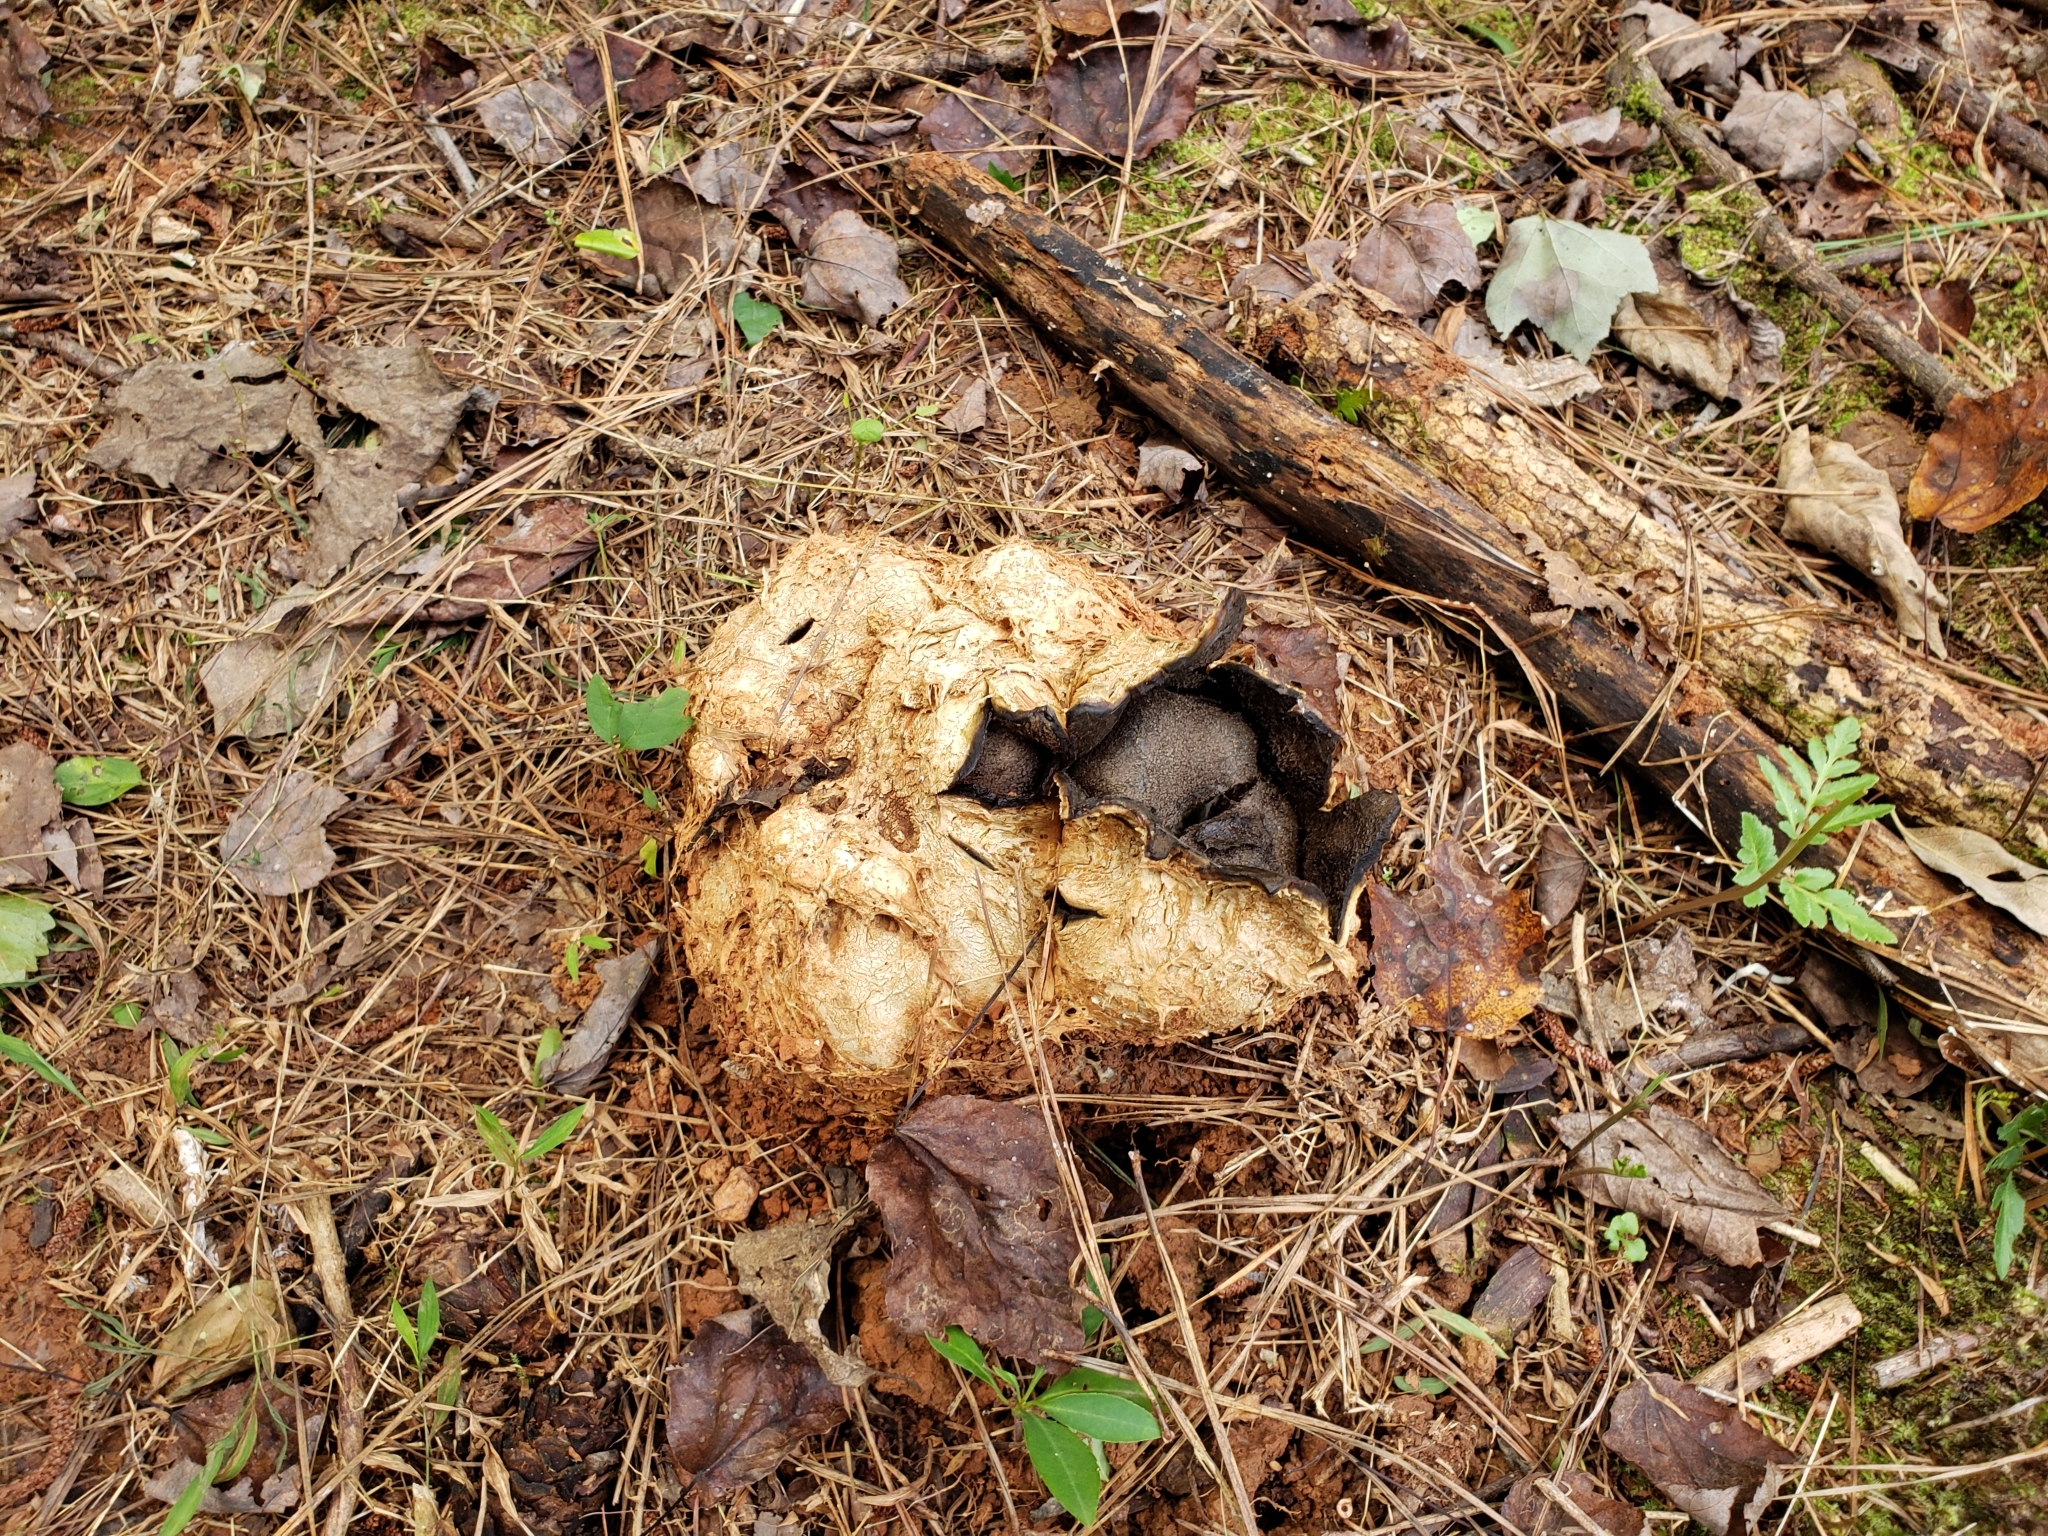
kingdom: Fungi
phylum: Basidiomycota
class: Agaricomycetes
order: Boletales
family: Sclerodermataceae
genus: Scleroderma
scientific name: Scleroderma polyrhizum
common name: Many-rooted earthball
